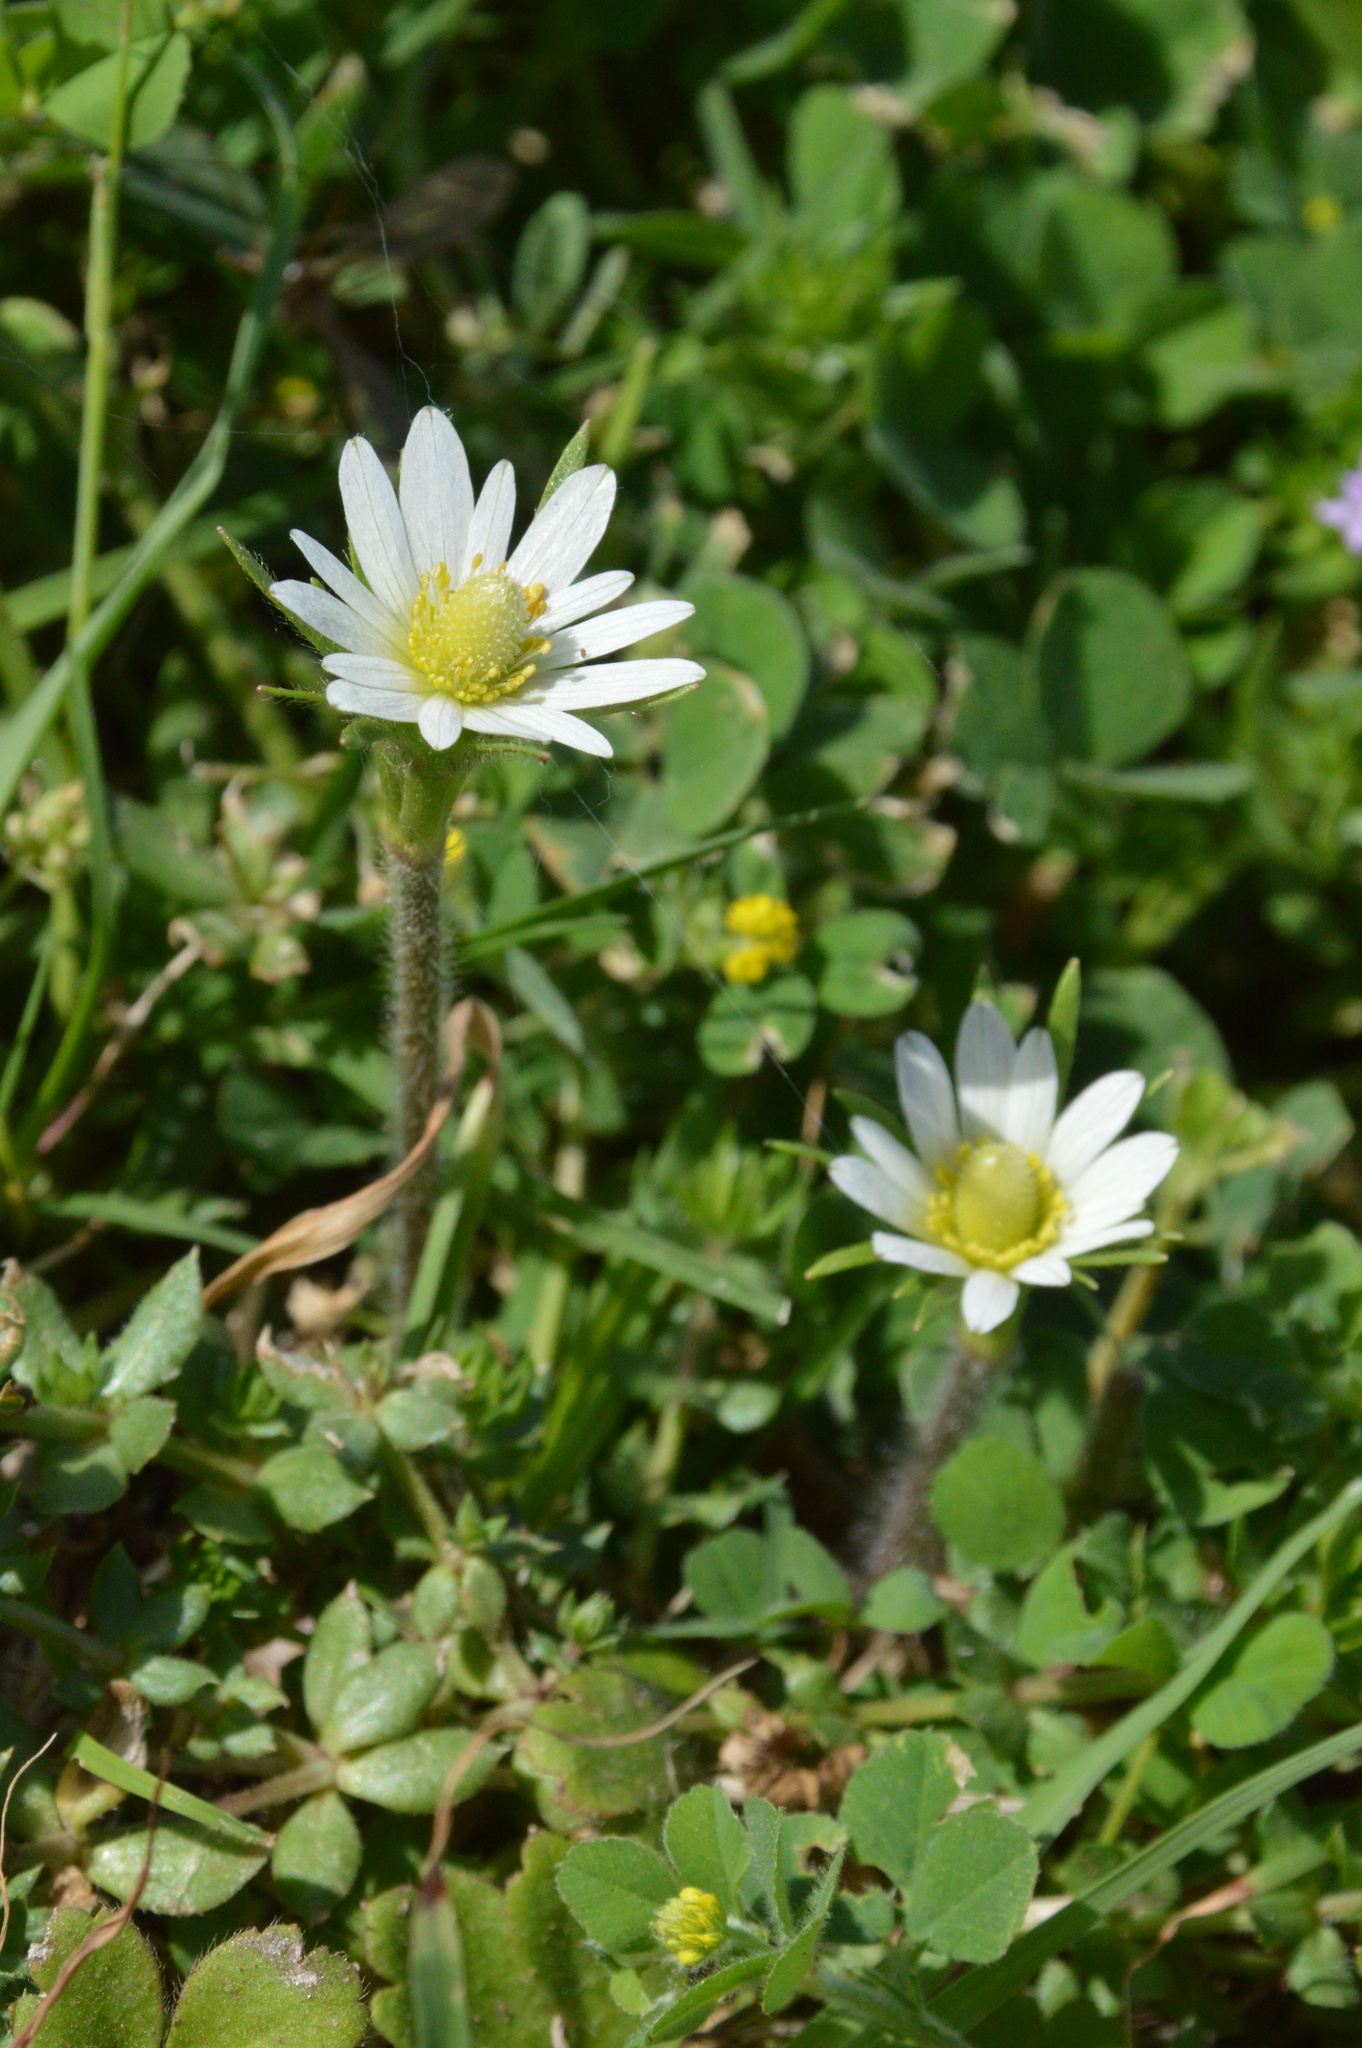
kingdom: Plantae
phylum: Tracheophyta
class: Magnoliopsida
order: Ranunculales
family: Ranunculaceae
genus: Anemone
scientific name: Anemone berlandieri
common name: Ten-petal anemone
